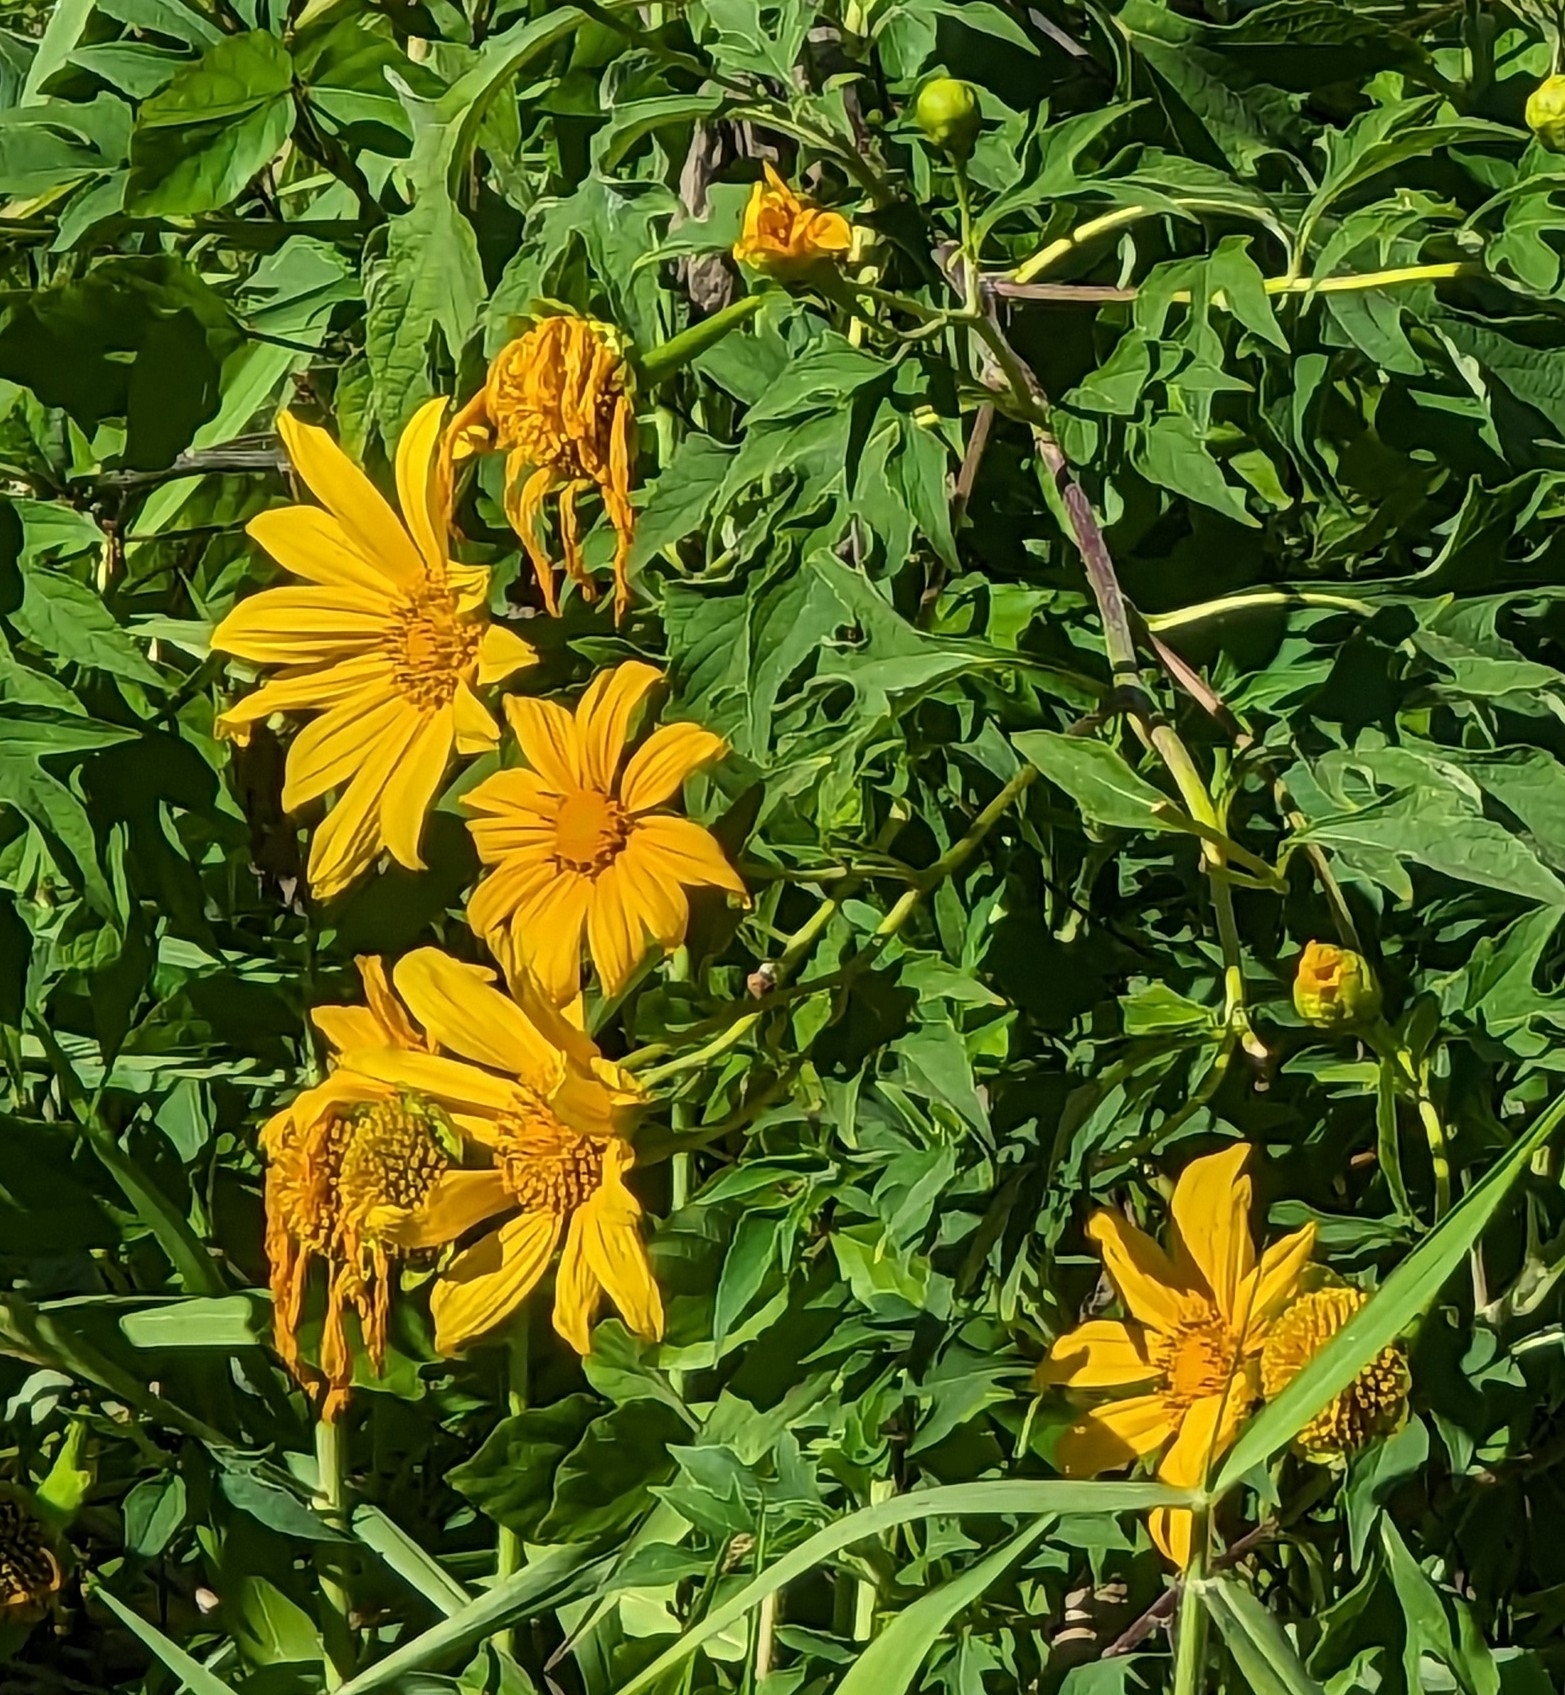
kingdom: Plantae
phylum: Tracheophyta
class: Magnoliopsida
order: Asterales
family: Asteraceae
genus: Tithonia
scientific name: Tithonia diversifolia
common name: Tree marigold
